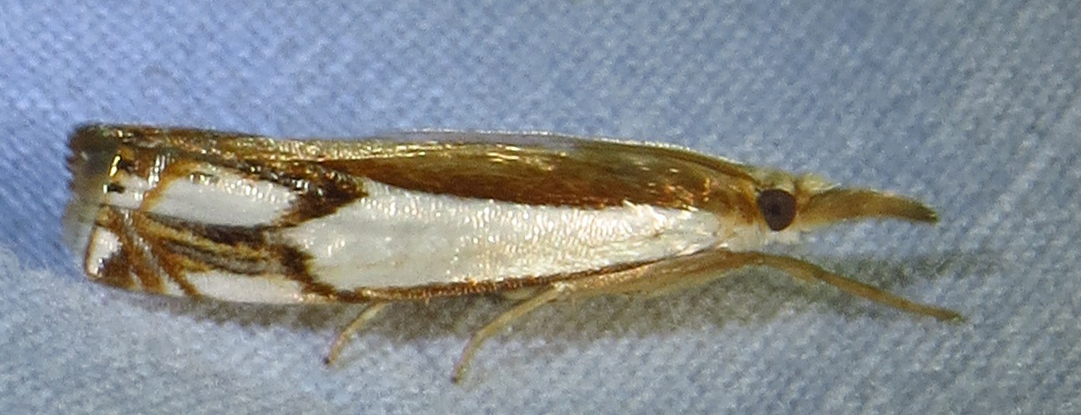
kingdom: Animalia
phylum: Arthropoda
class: Insecta
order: Lepidoptera
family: Crambidae
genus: Crambus
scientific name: Crambus agitatellus
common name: Double-banded grass-veneer
